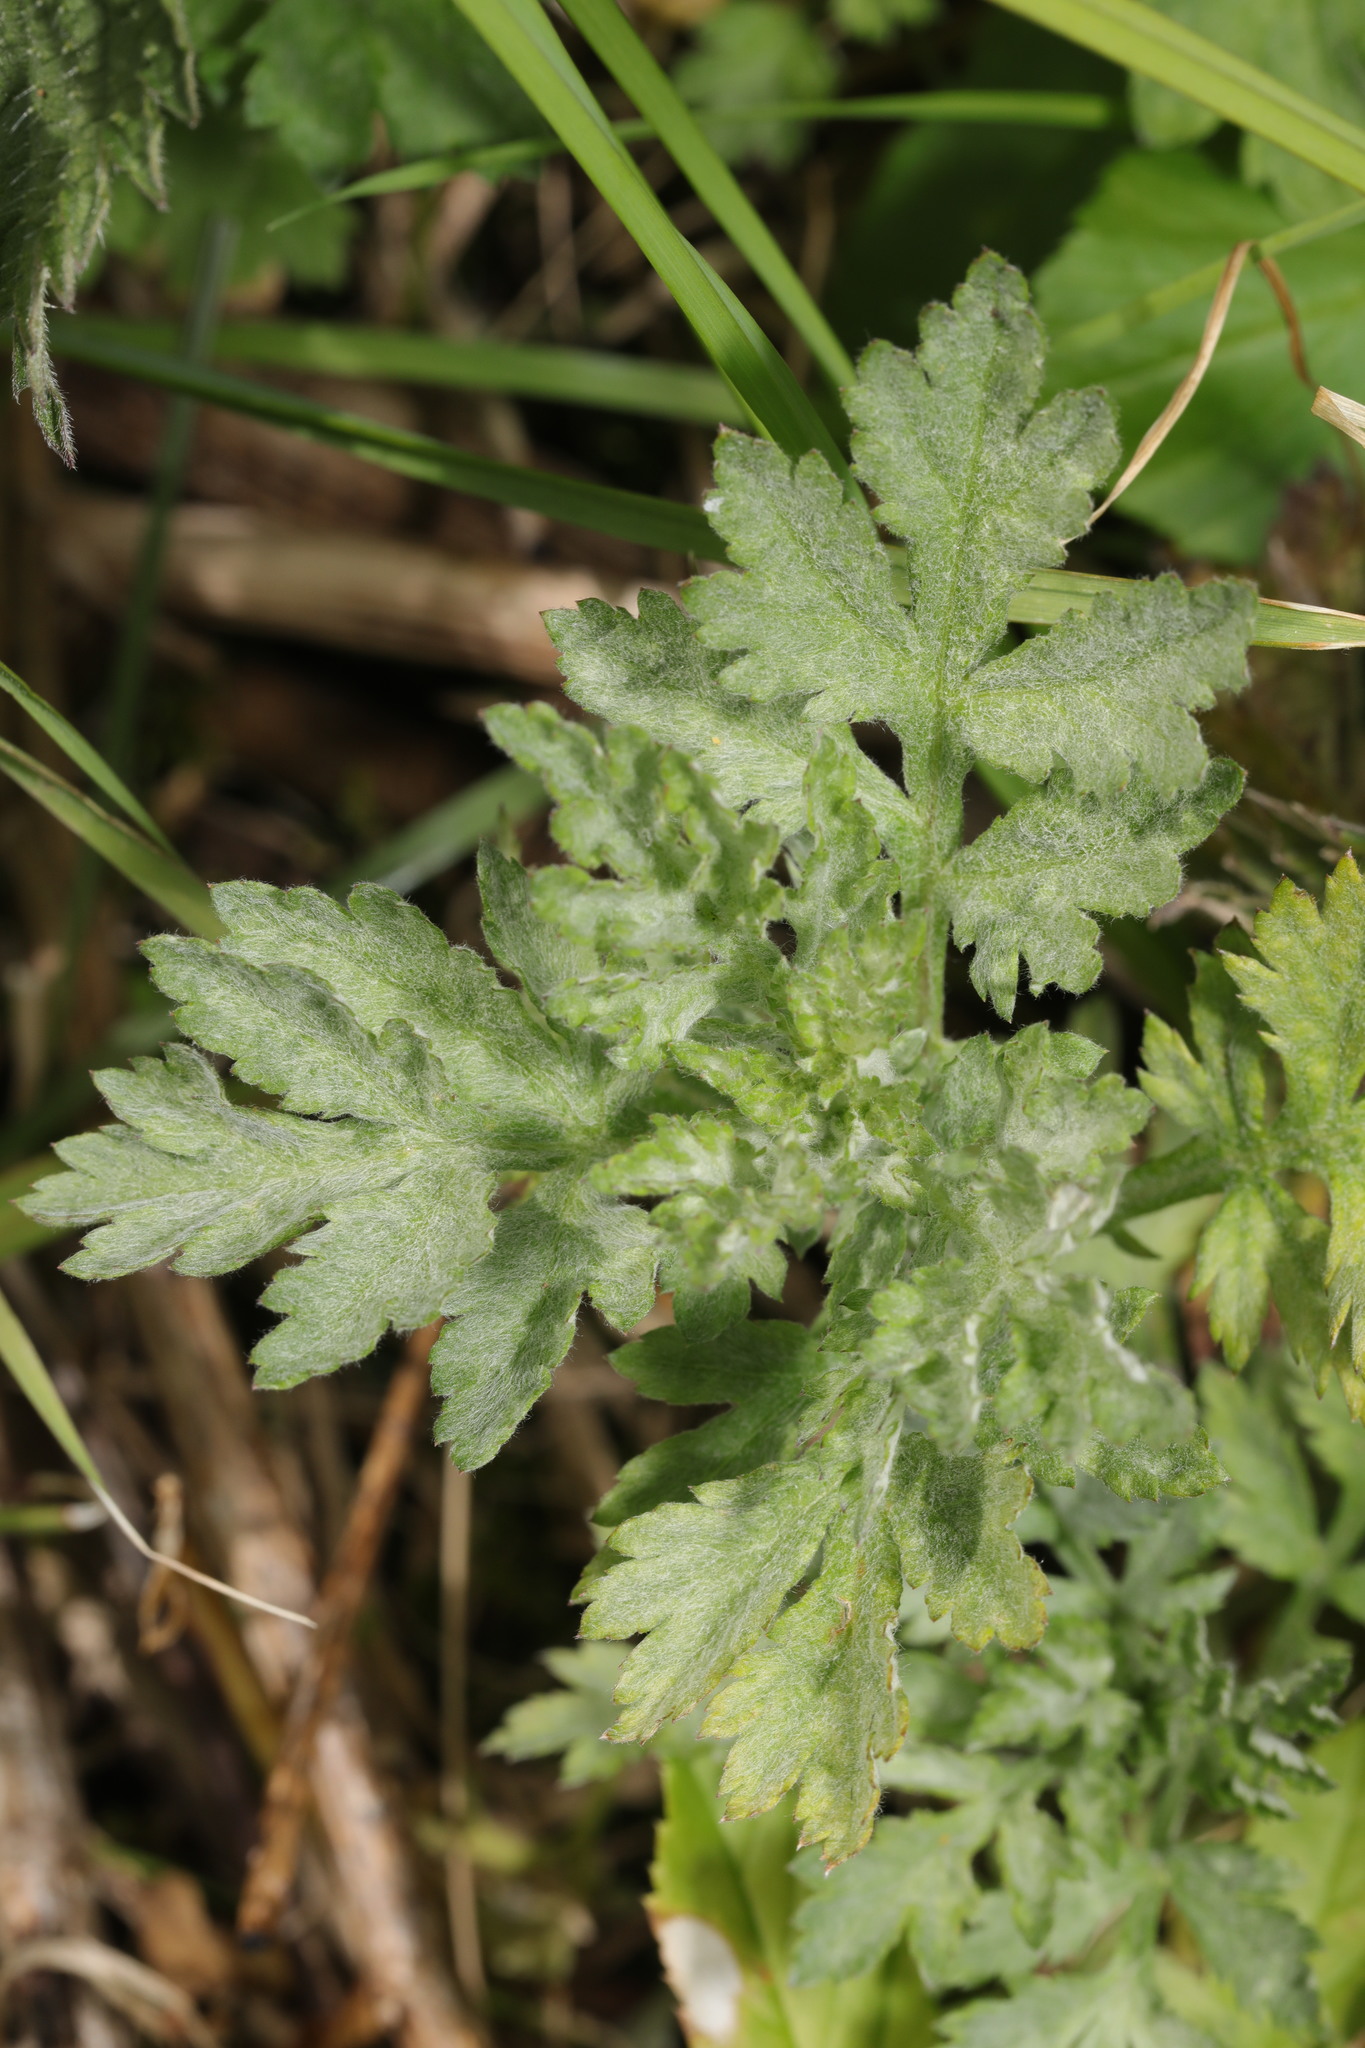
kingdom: Plantae
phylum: Tracheophyta
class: Magnoliopsida
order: Asterales
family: Asteraceae
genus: Artemisia
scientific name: Artemisia vulgaris
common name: Mugwort
